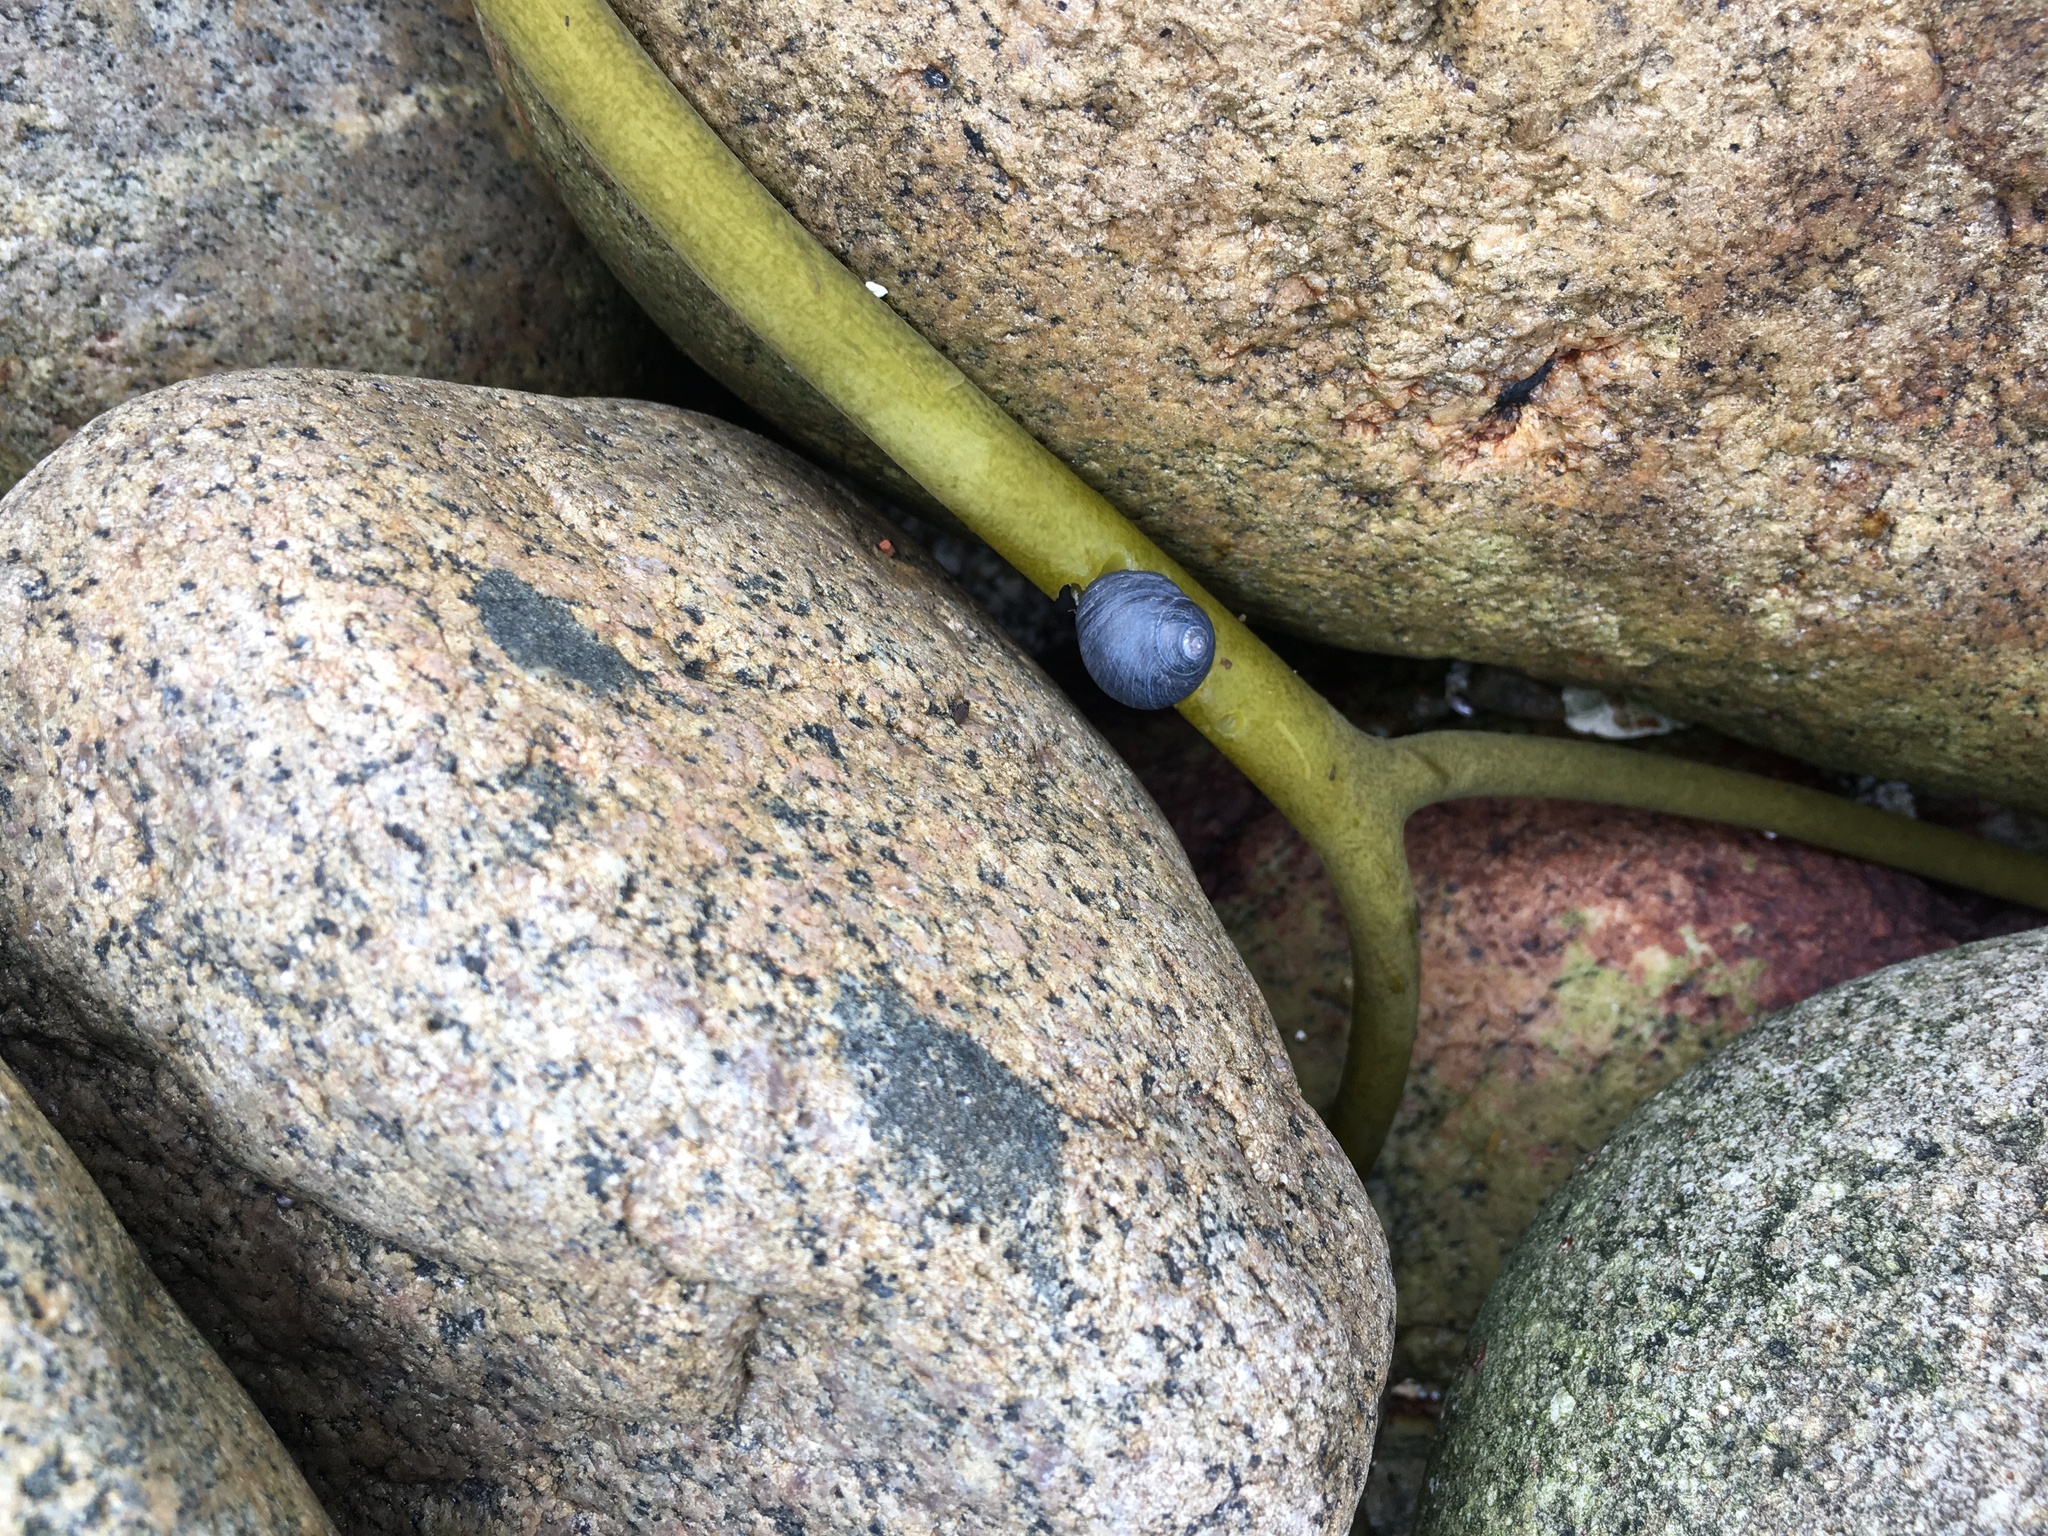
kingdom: Animalia
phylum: Mollusca
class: Gastropoda
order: Trochida
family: Trochidae
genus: Diloma
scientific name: Diloma nigerrimum
